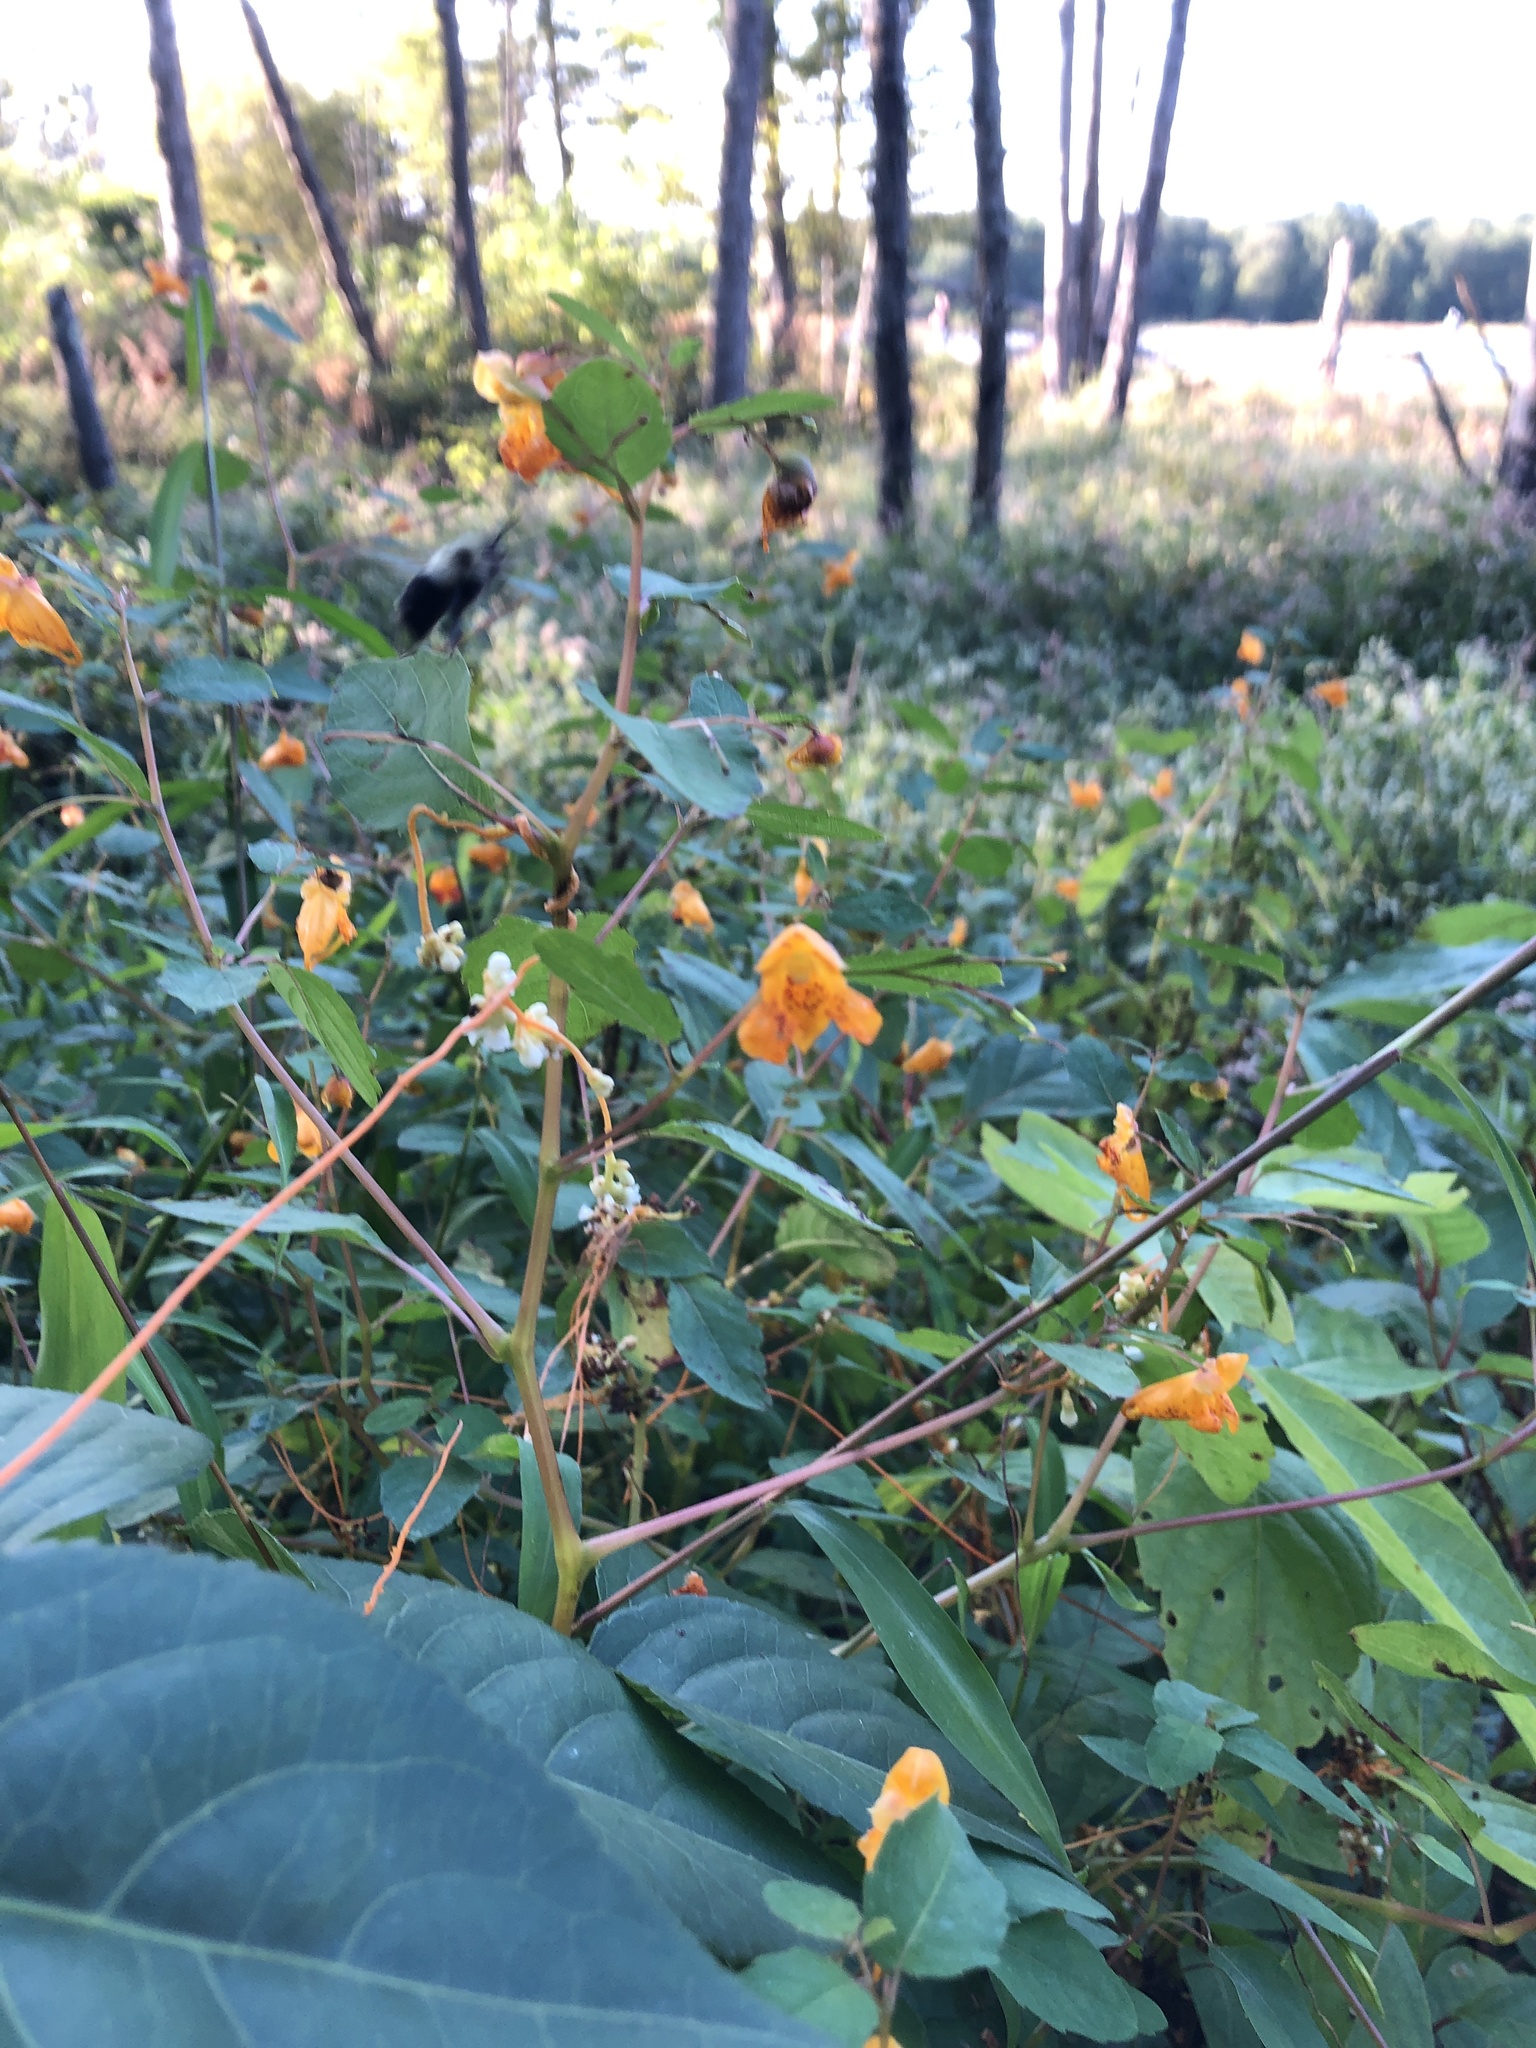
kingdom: Plantae
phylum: Tracheophyta
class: Magnoliopsida
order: Ericales
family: Balsaminaceae
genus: Impatiens
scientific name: Impatiens capensis
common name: Orange balsam
